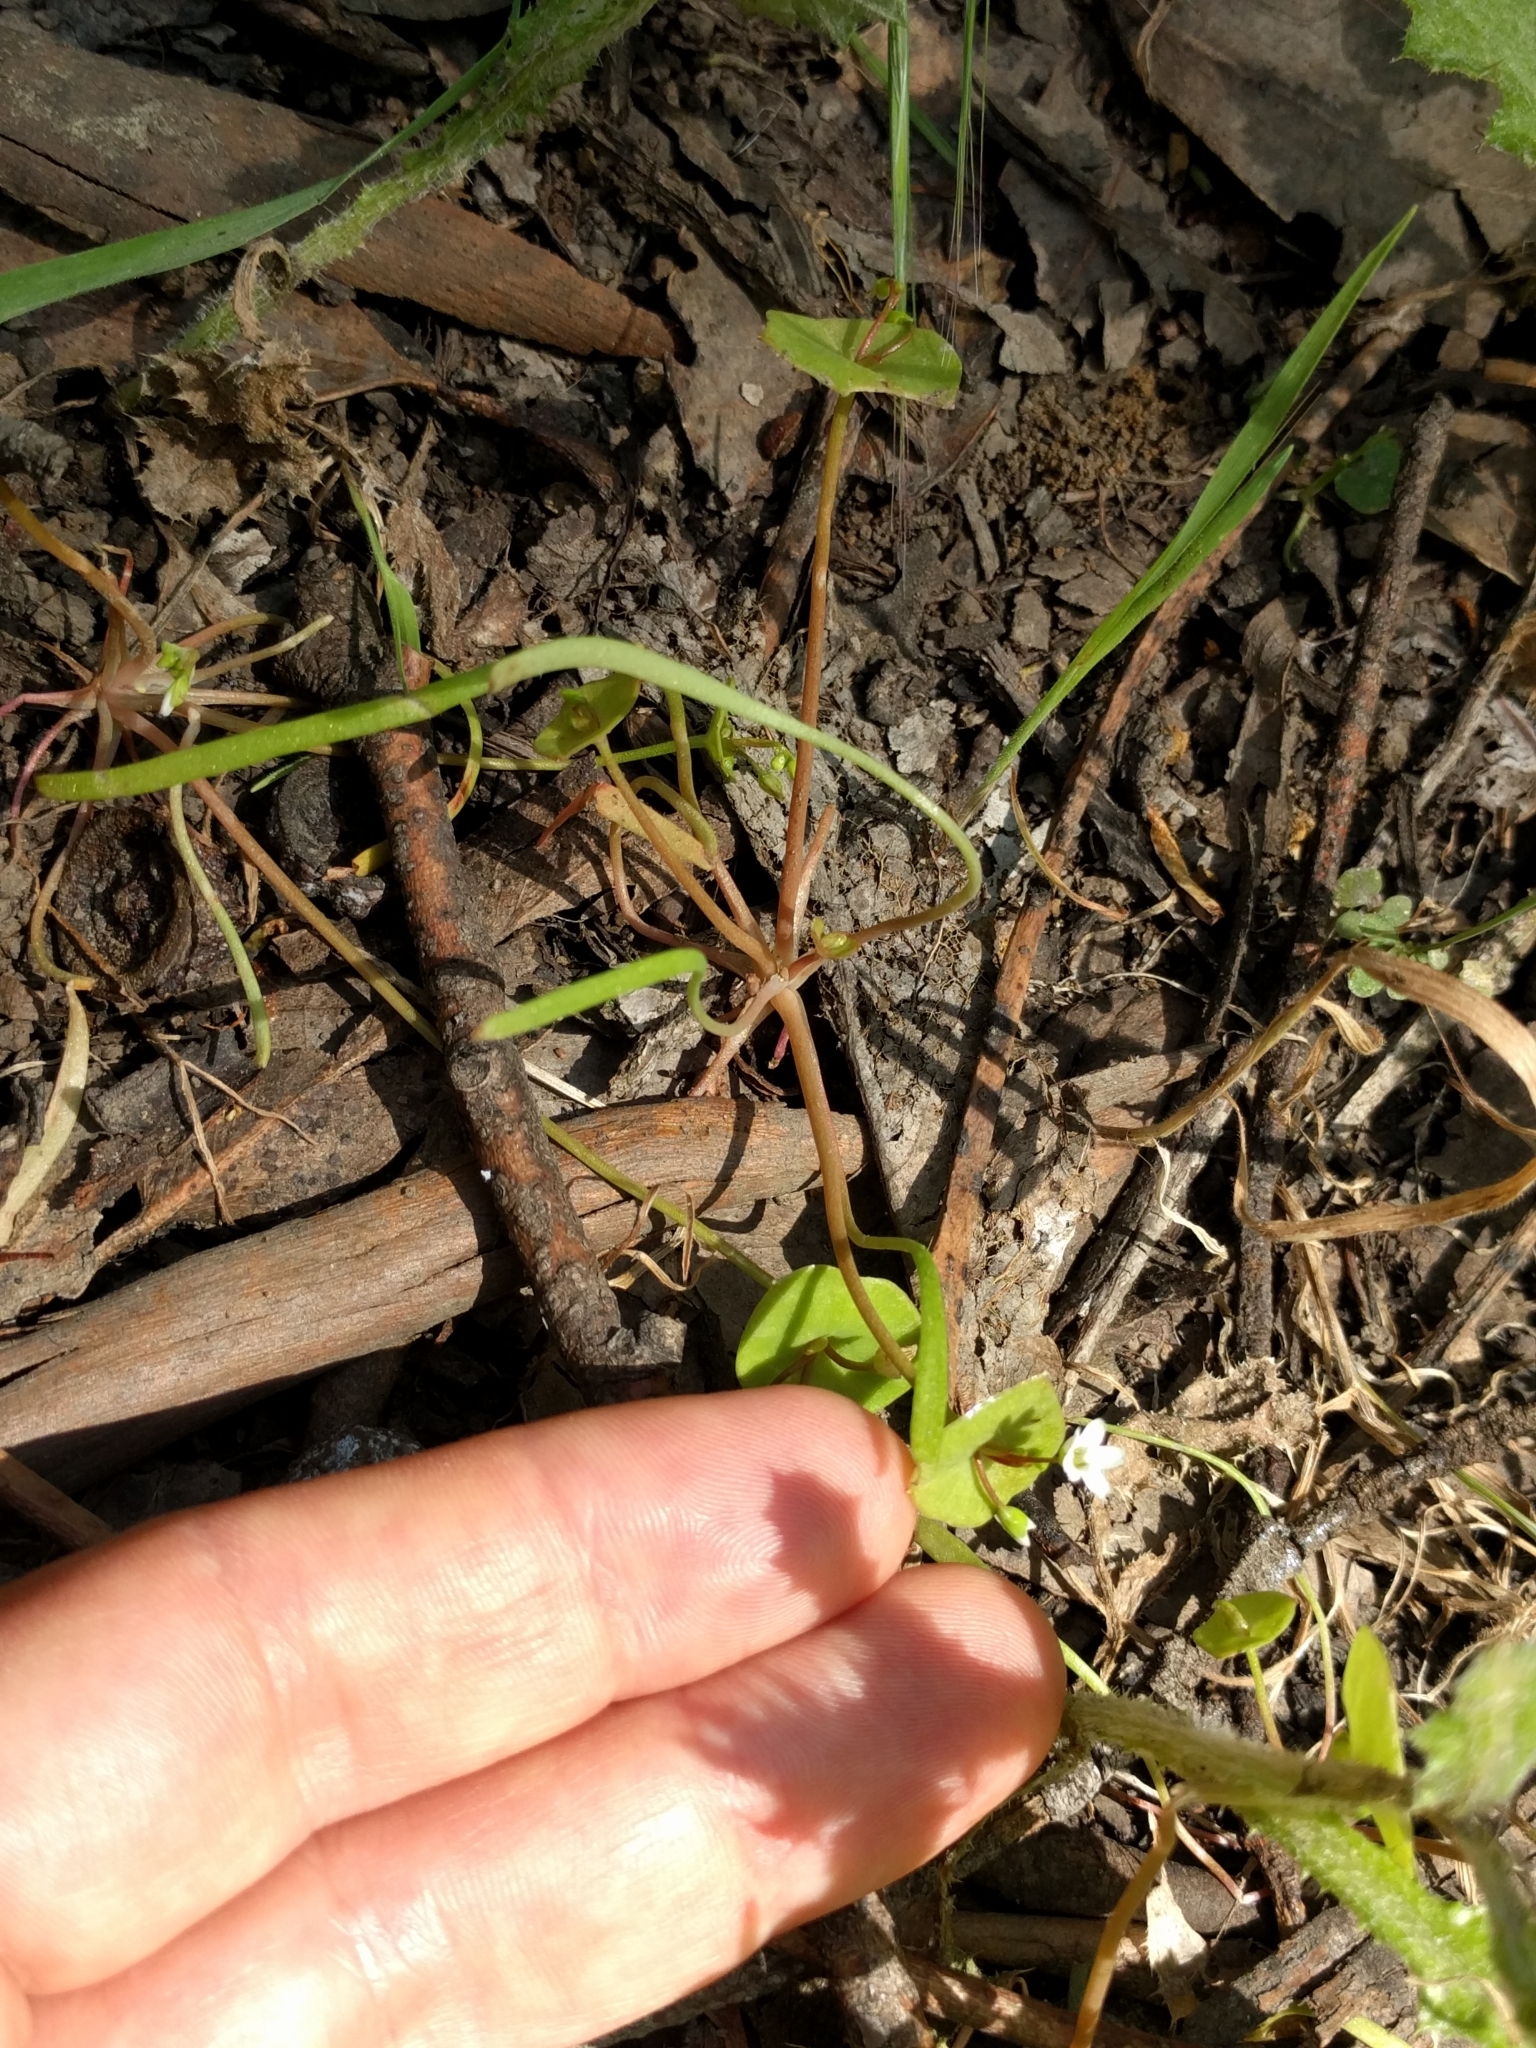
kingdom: Plantae
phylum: Tracheophyta
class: Magnoliopsida
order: Caryophyllales
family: Montiaceae
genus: Claytonia
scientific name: Claytonia parviflora
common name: Indian-lettuce
